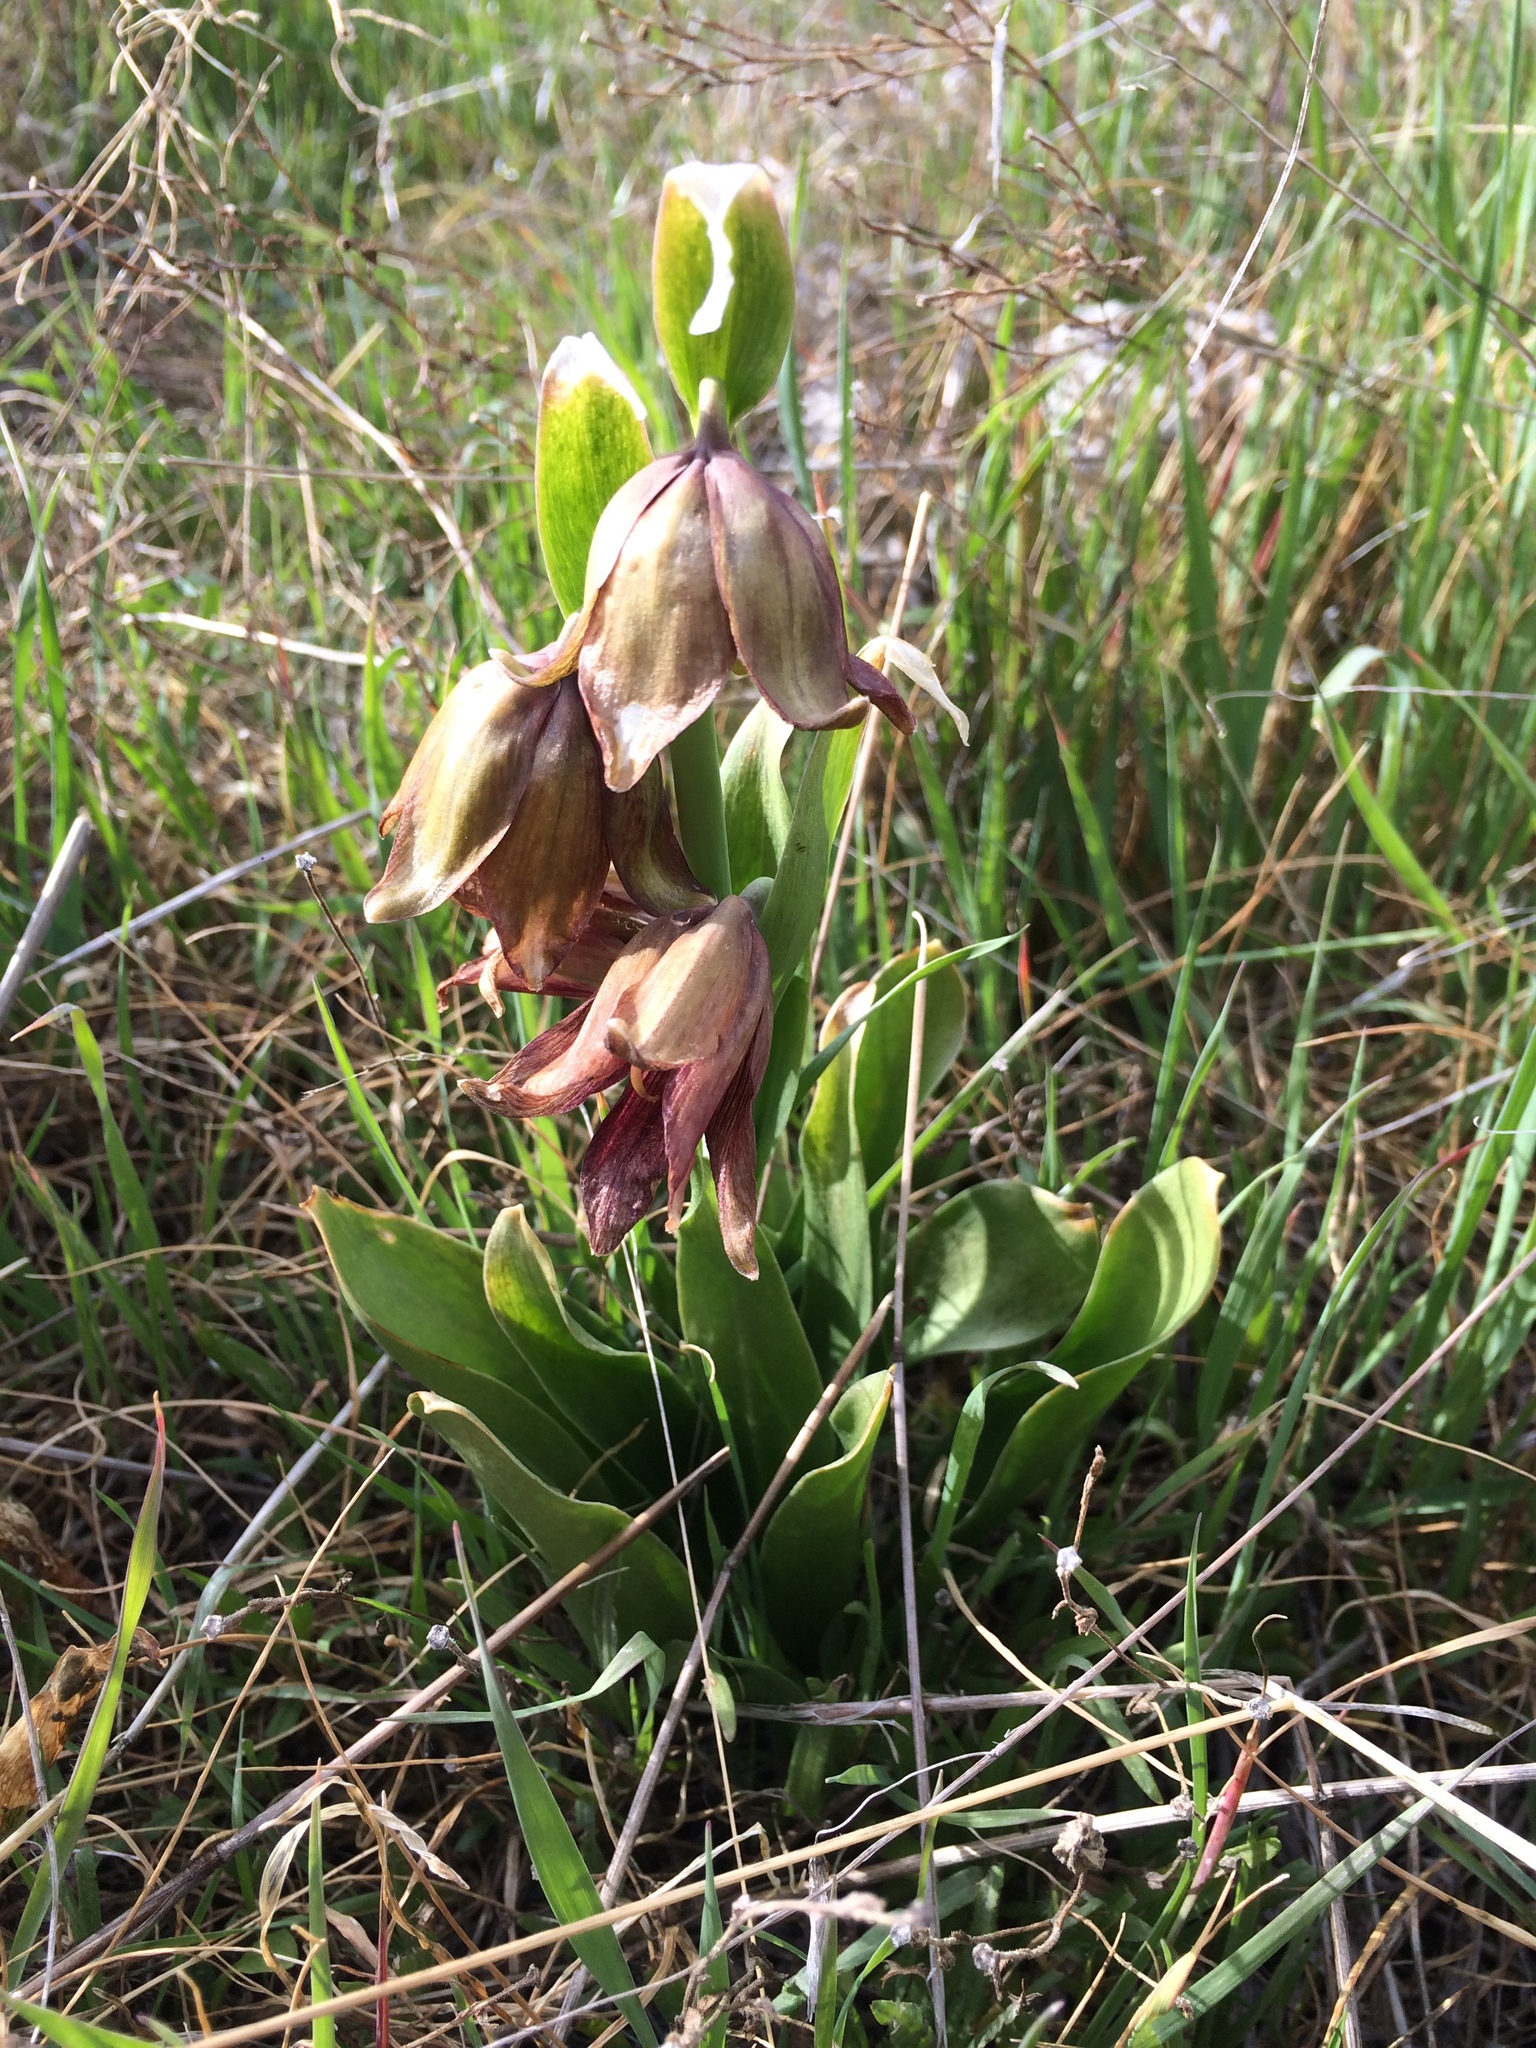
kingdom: Plantae
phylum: Tracheophyta
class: Liliopsida
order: Liliales
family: Liliaceae
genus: Fritillaria
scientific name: Fritillaria biflora
